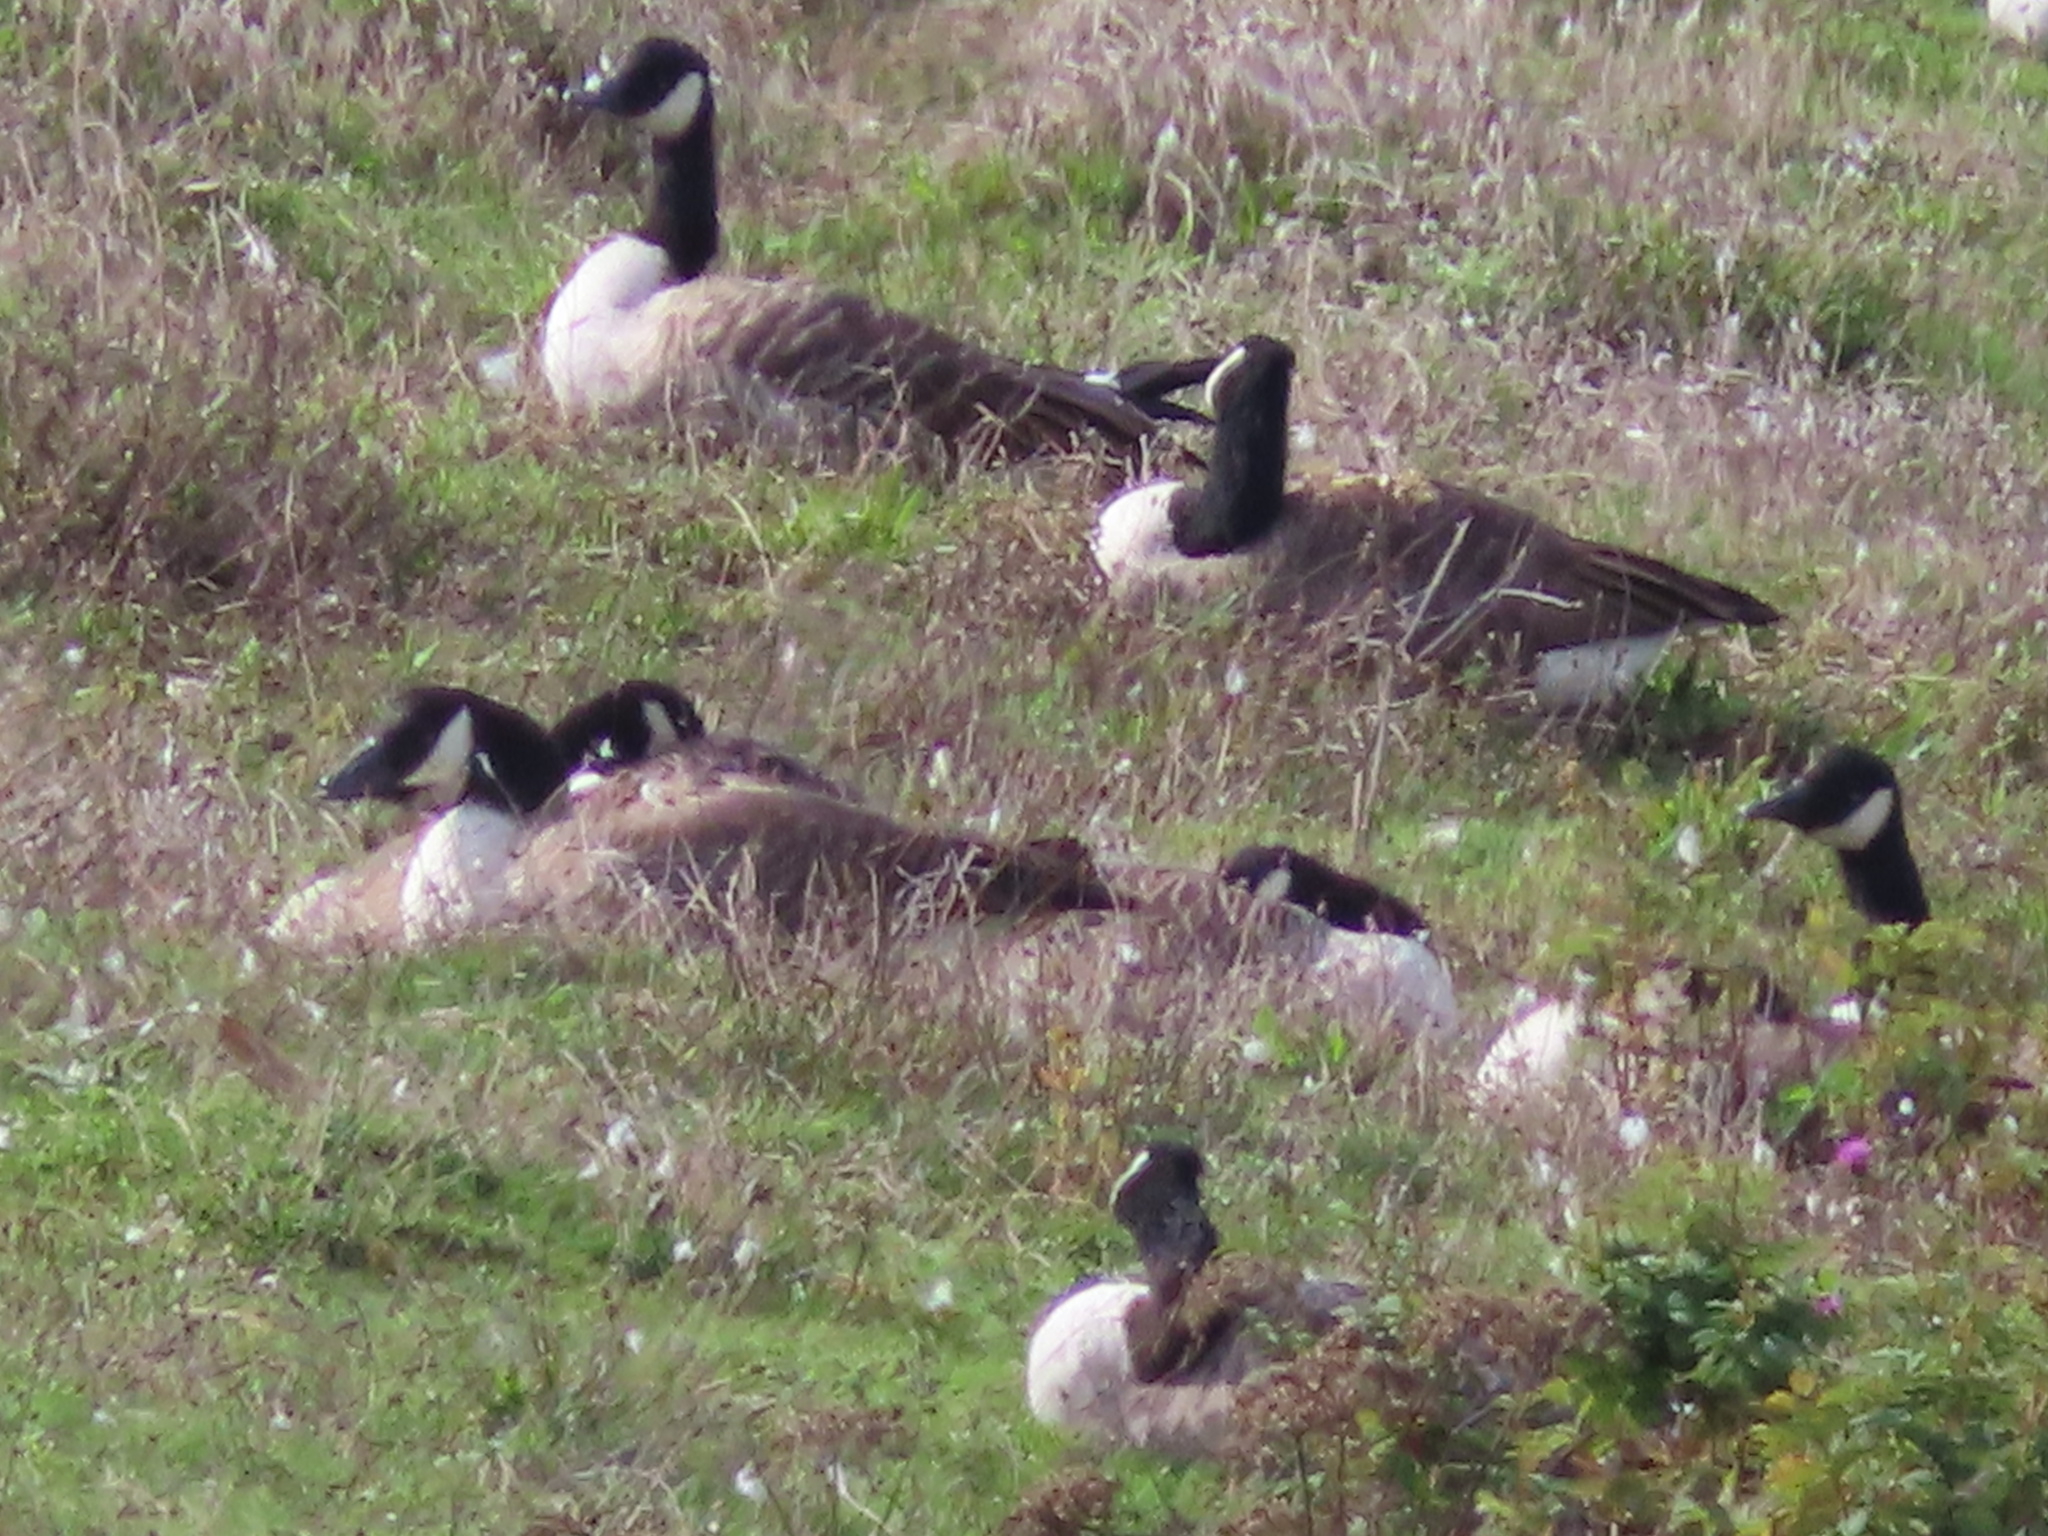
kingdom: Animalia
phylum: Chordata
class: Aves
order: Anseriformes
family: Anatidae
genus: Branta
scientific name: Branta canadensis
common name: Canada goose
